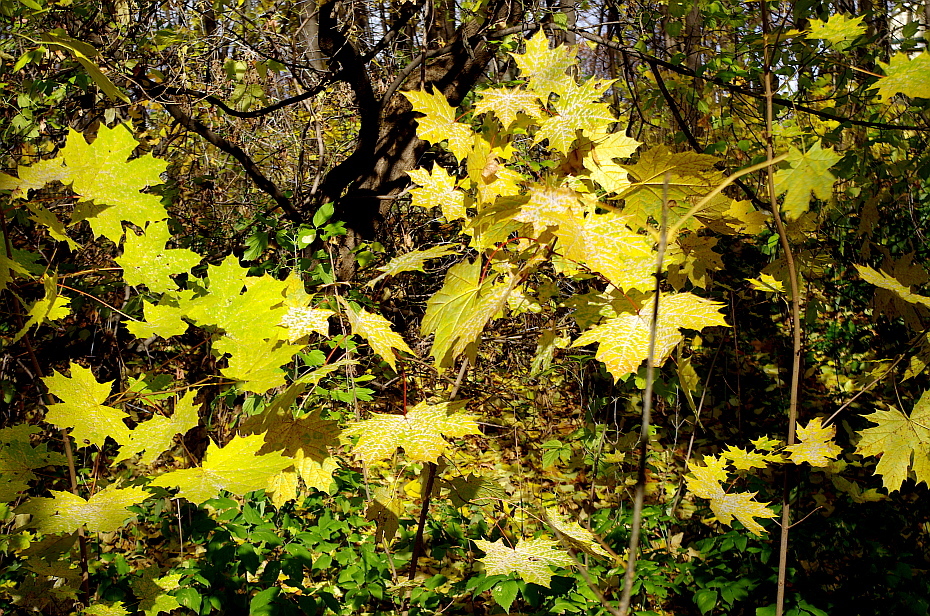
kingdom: Plantae
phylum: Tracheophyta
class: Magnoliopsida
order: Sapindales
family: Sapindaceae
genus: Acer
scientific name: Acer platanoides
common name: Norway maple
